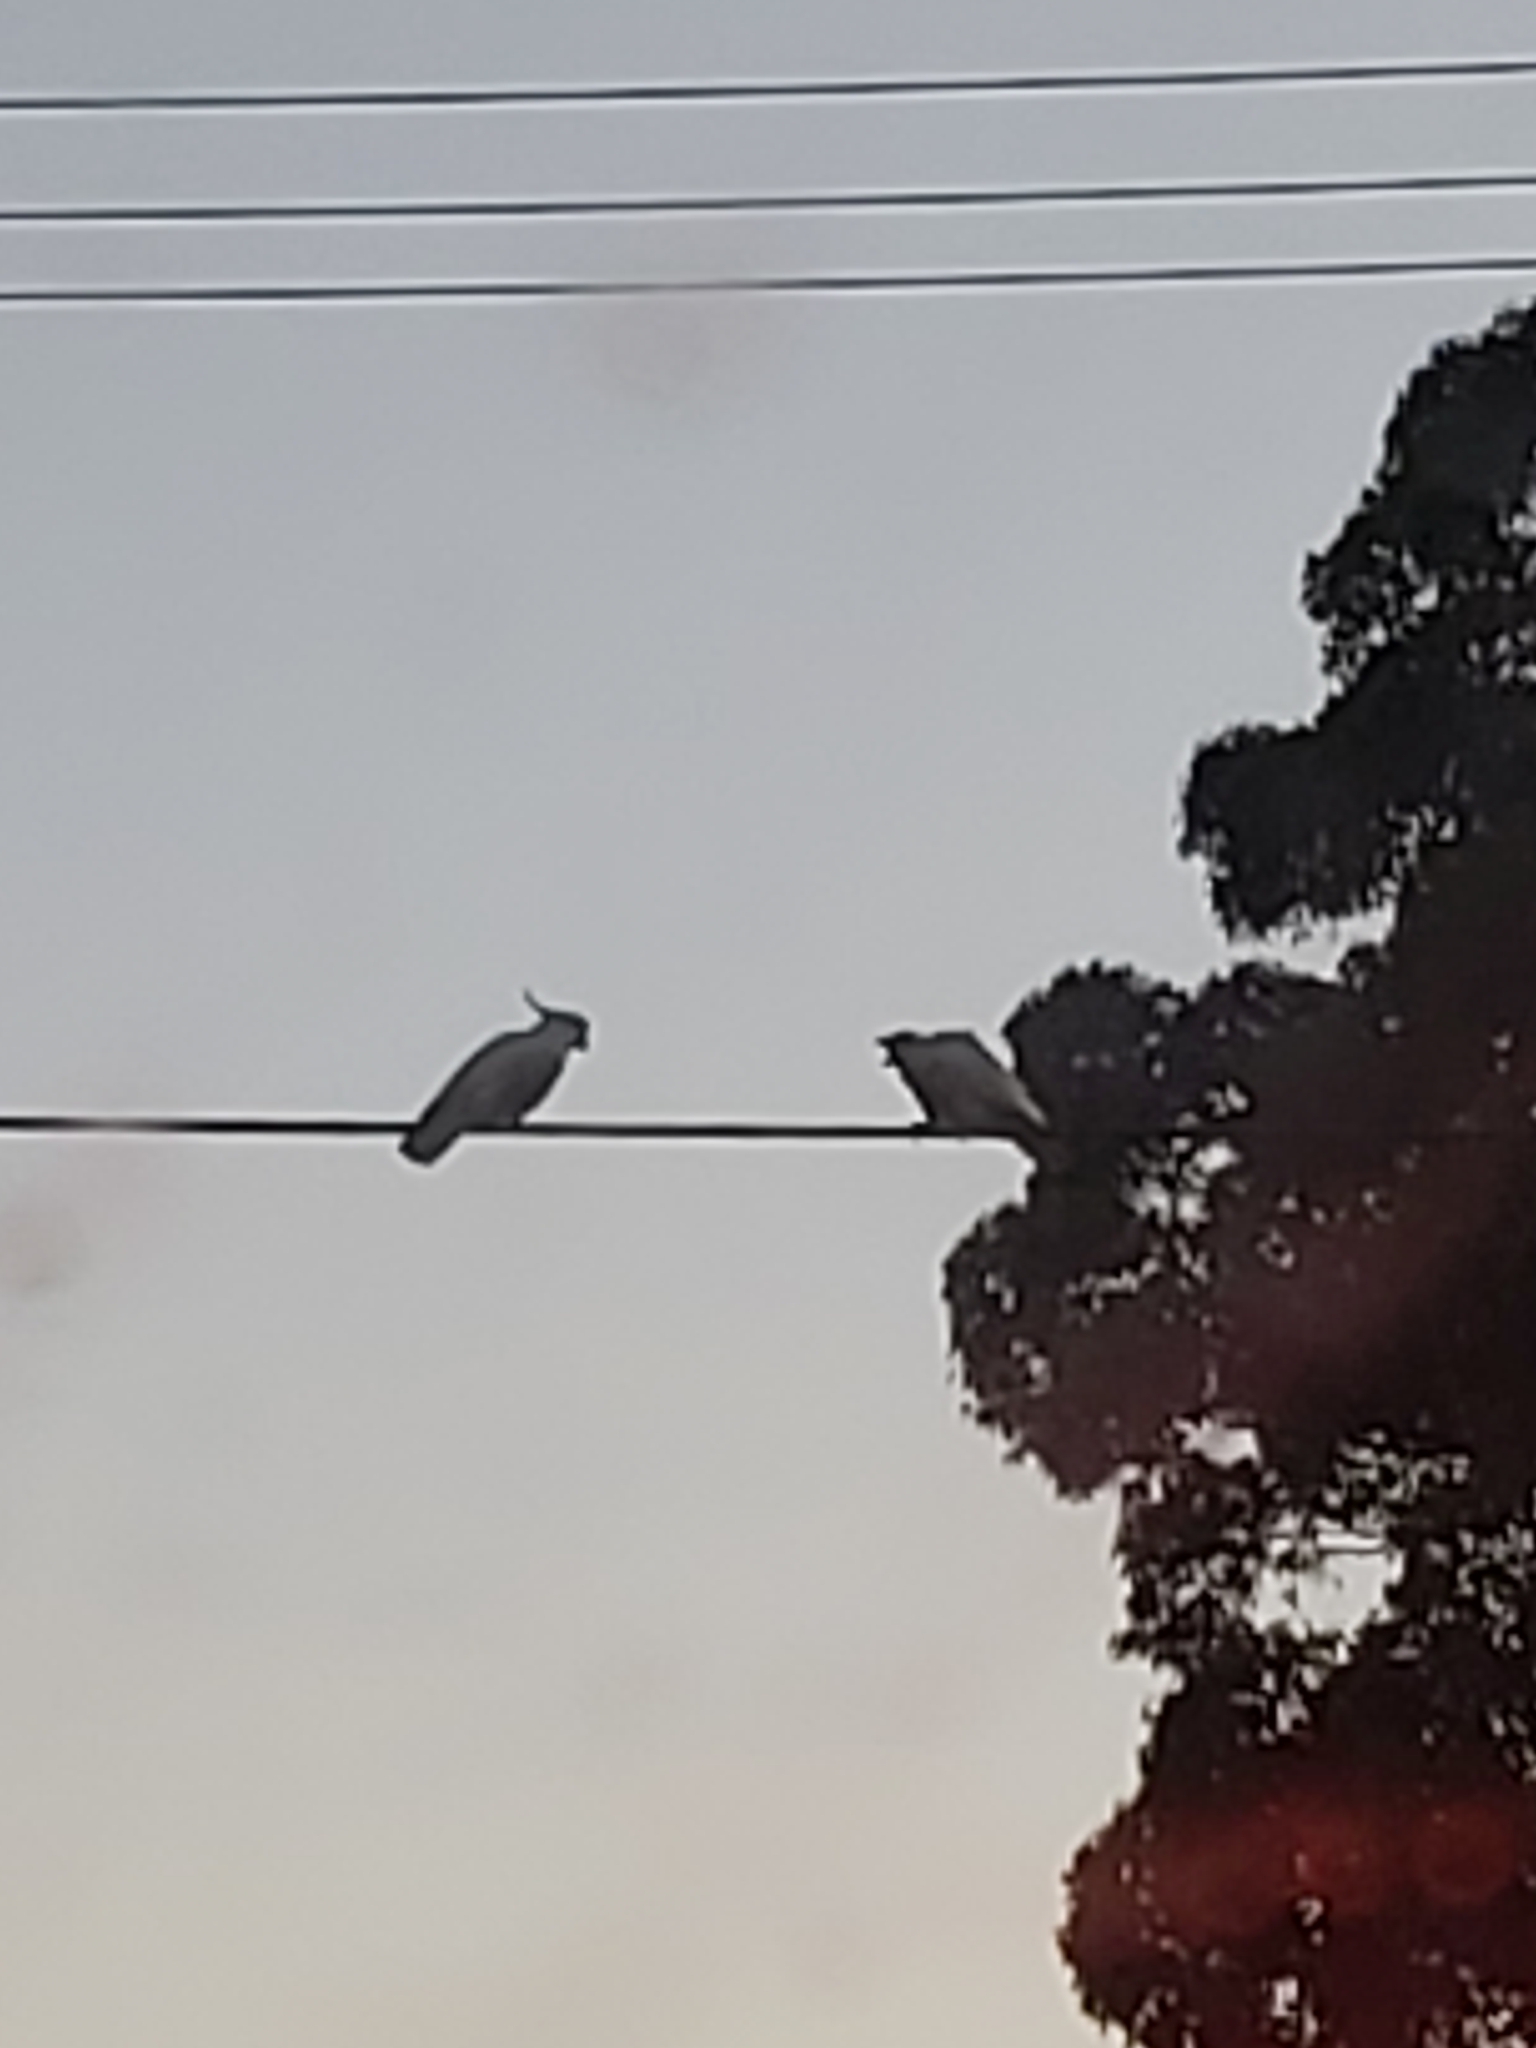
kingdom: Animalia
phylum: Chordata
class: Aves
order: Psittaciformes
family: Psittacidae
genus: Cacatua
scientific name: Cacatua galerita
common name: Sulphur-crested cockatoo
